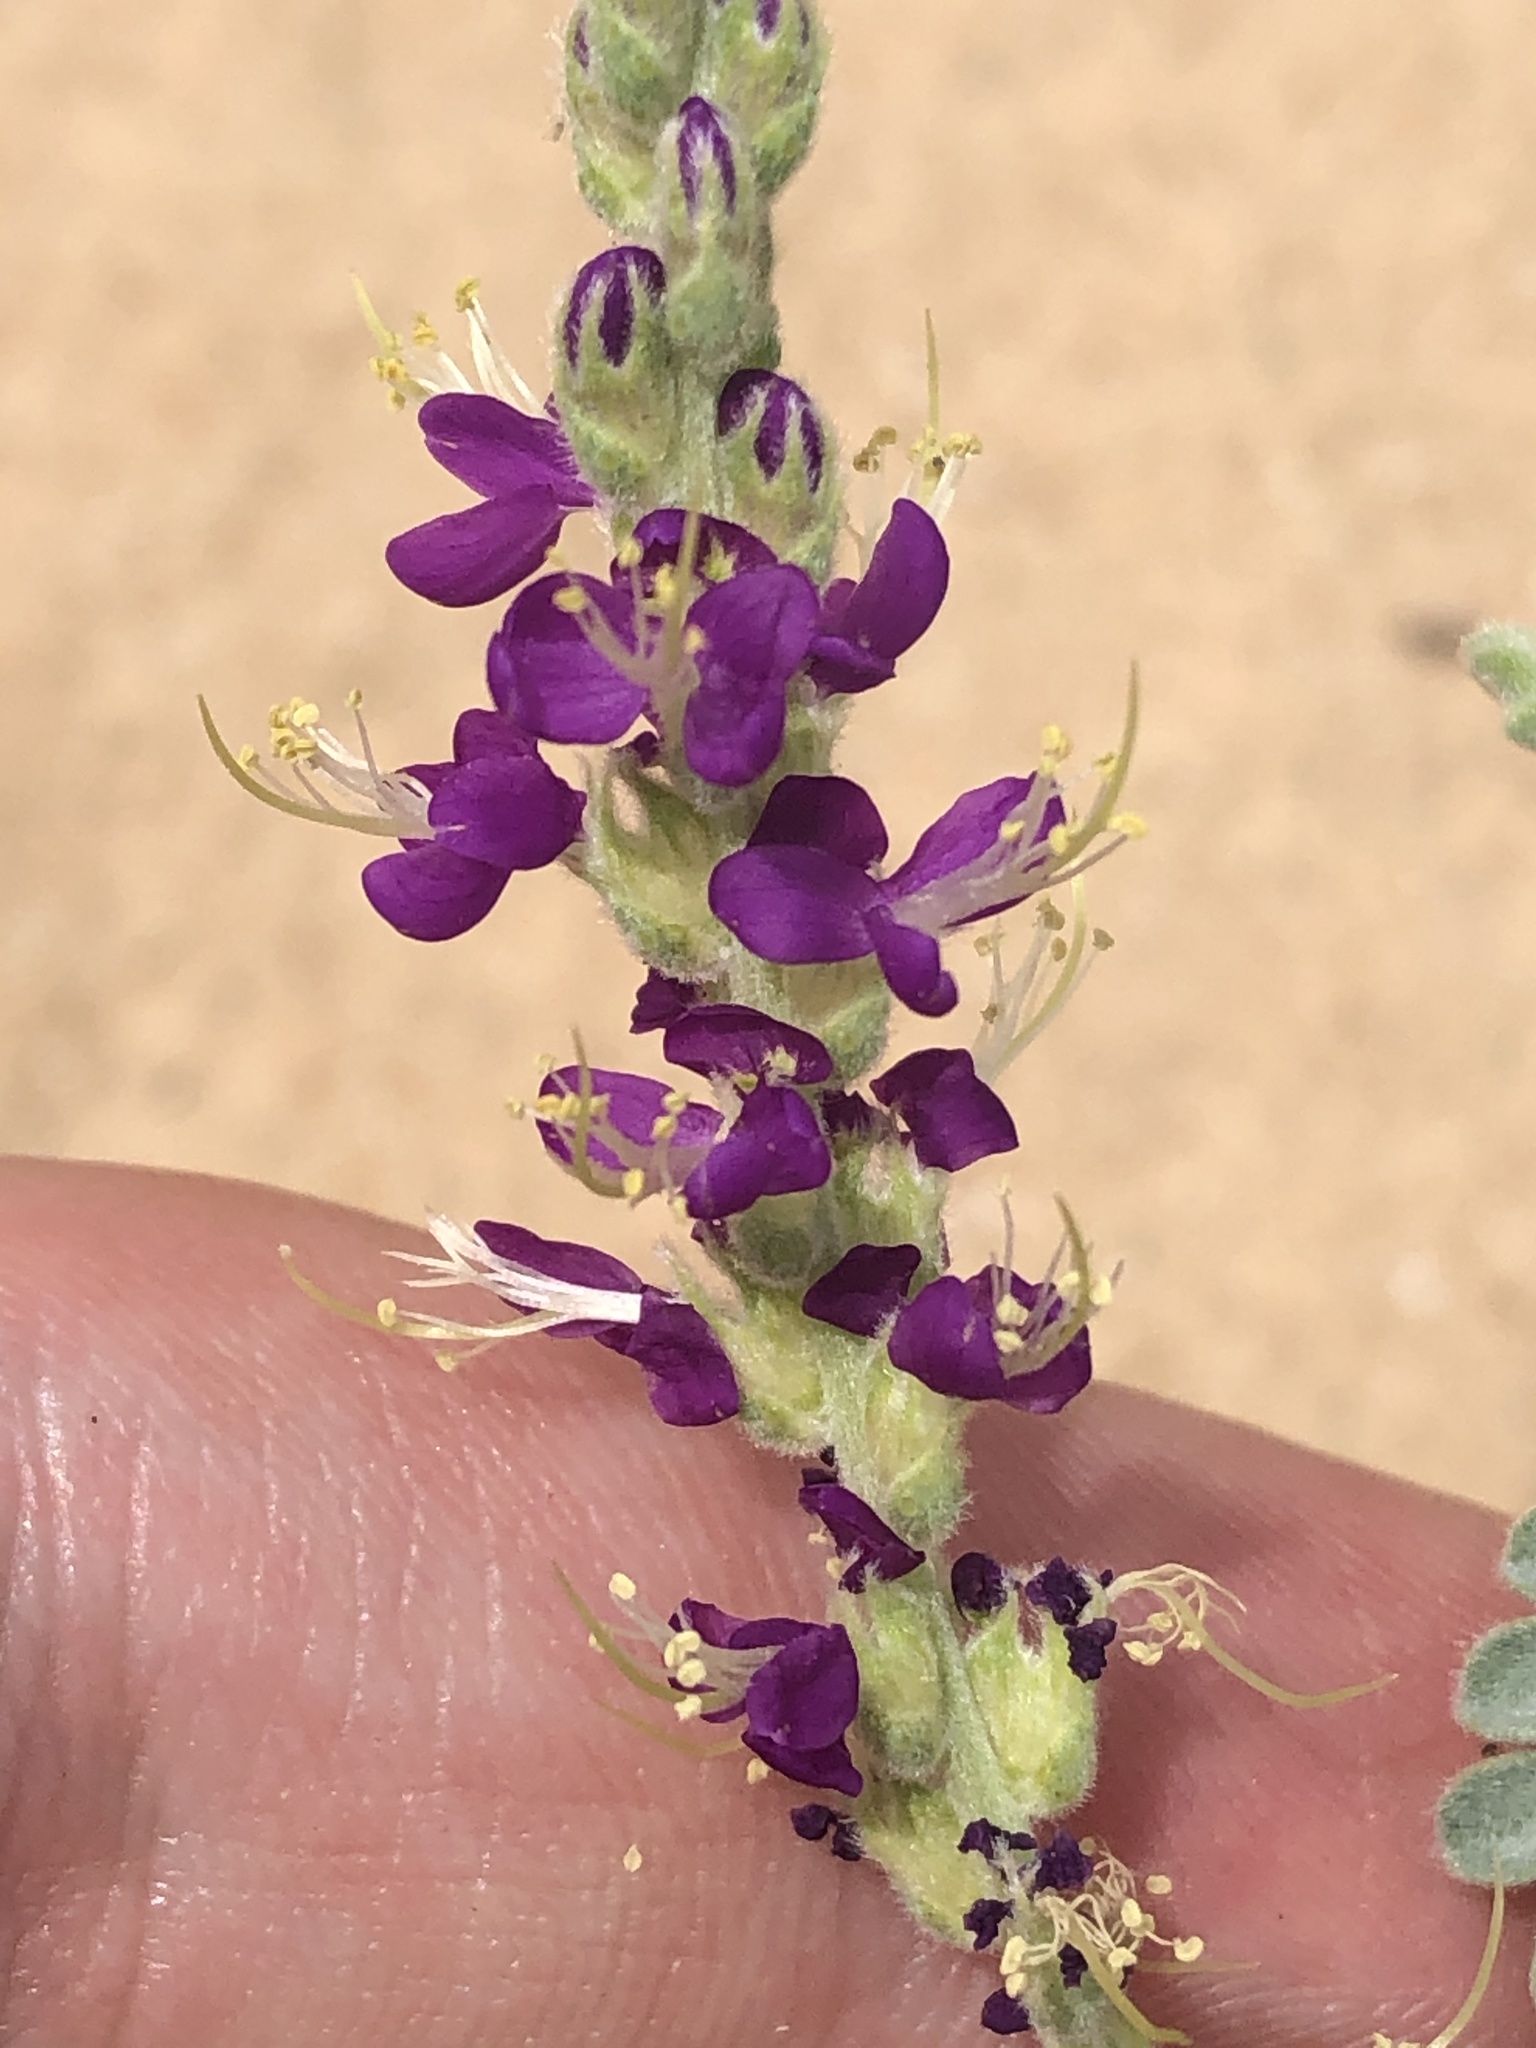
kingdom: Plantae
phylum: Tracheophyta
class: Magnoliopsida
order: Fabales
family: Fabaceae
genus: Dalea
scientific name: Dalea lanata
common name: Woolly dalea
